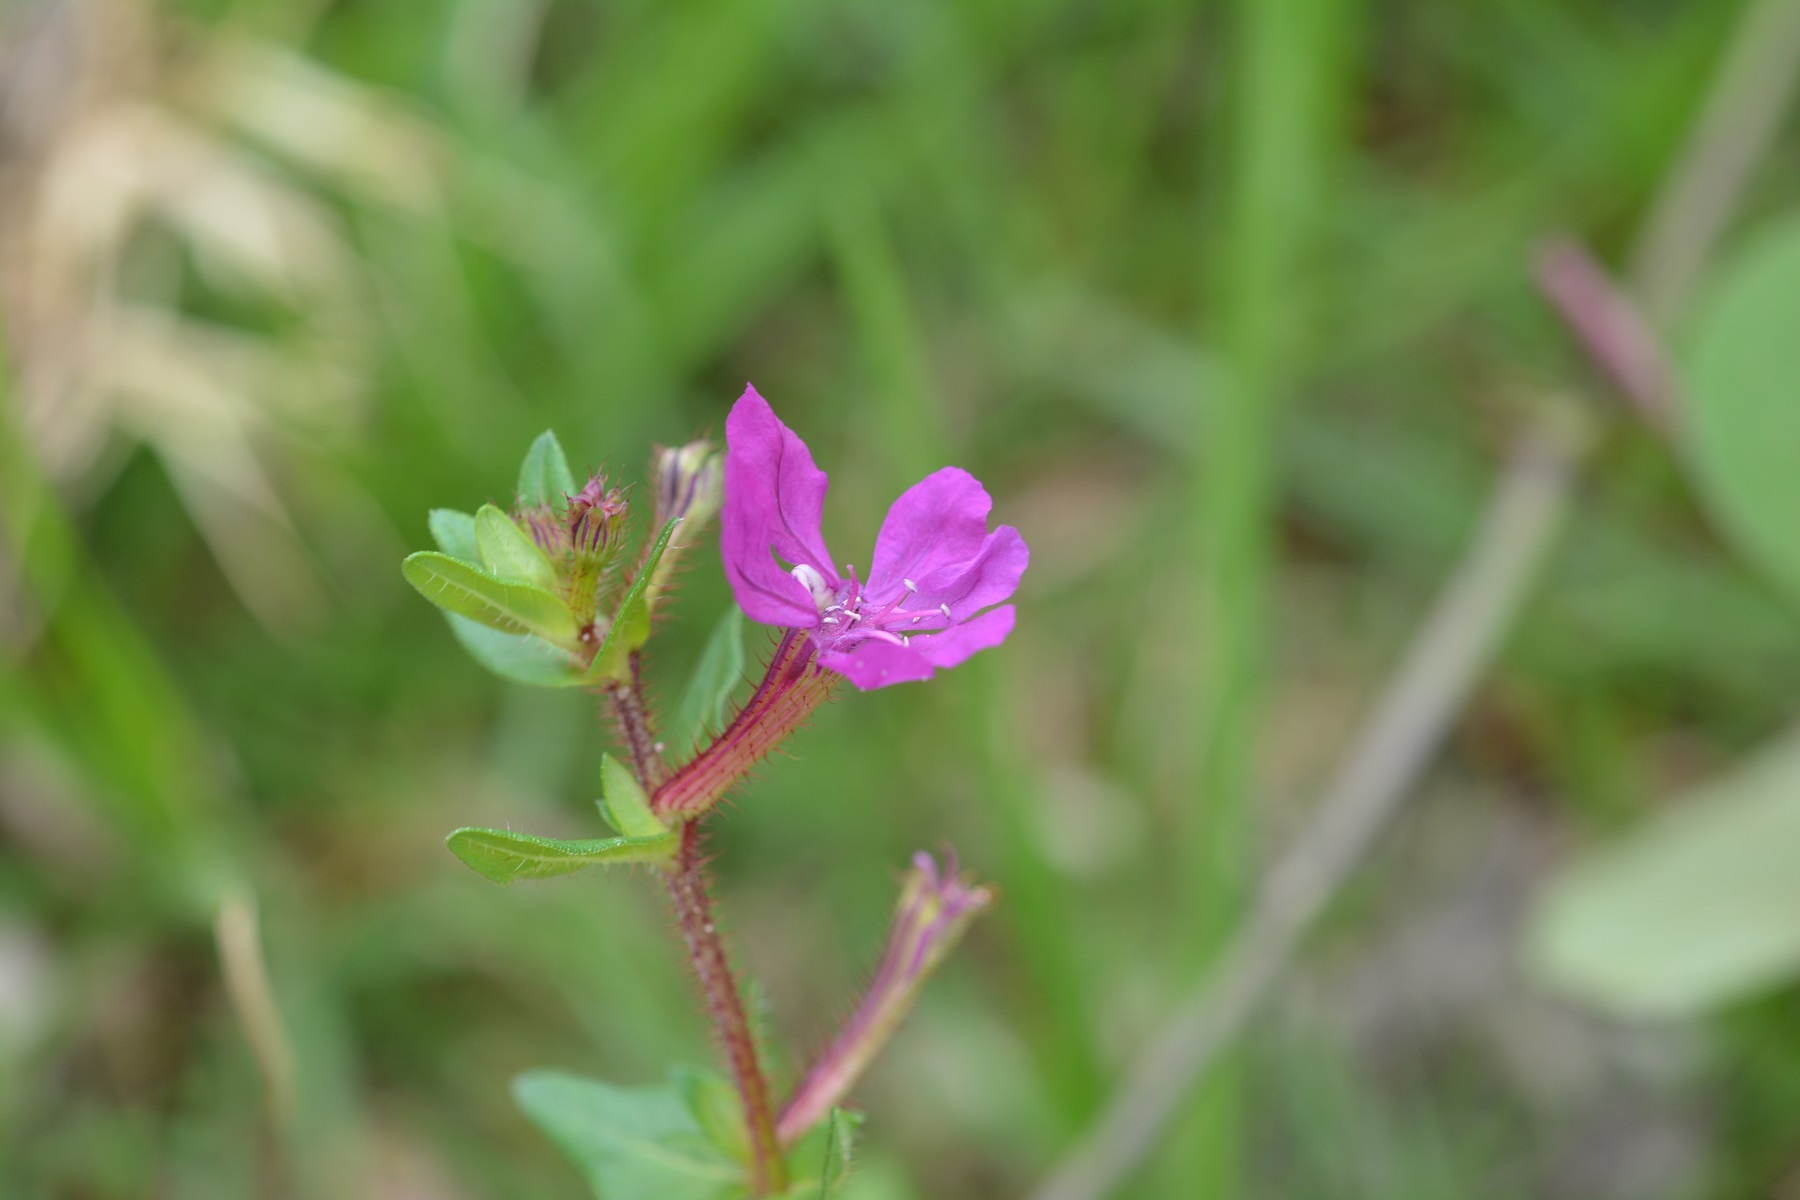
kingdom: Plantae
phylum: Tracheophyta
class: Magnoliopsida
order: Myrtales
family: Lythraceae
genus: Cuphea
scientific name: Cuphea aequipetala
